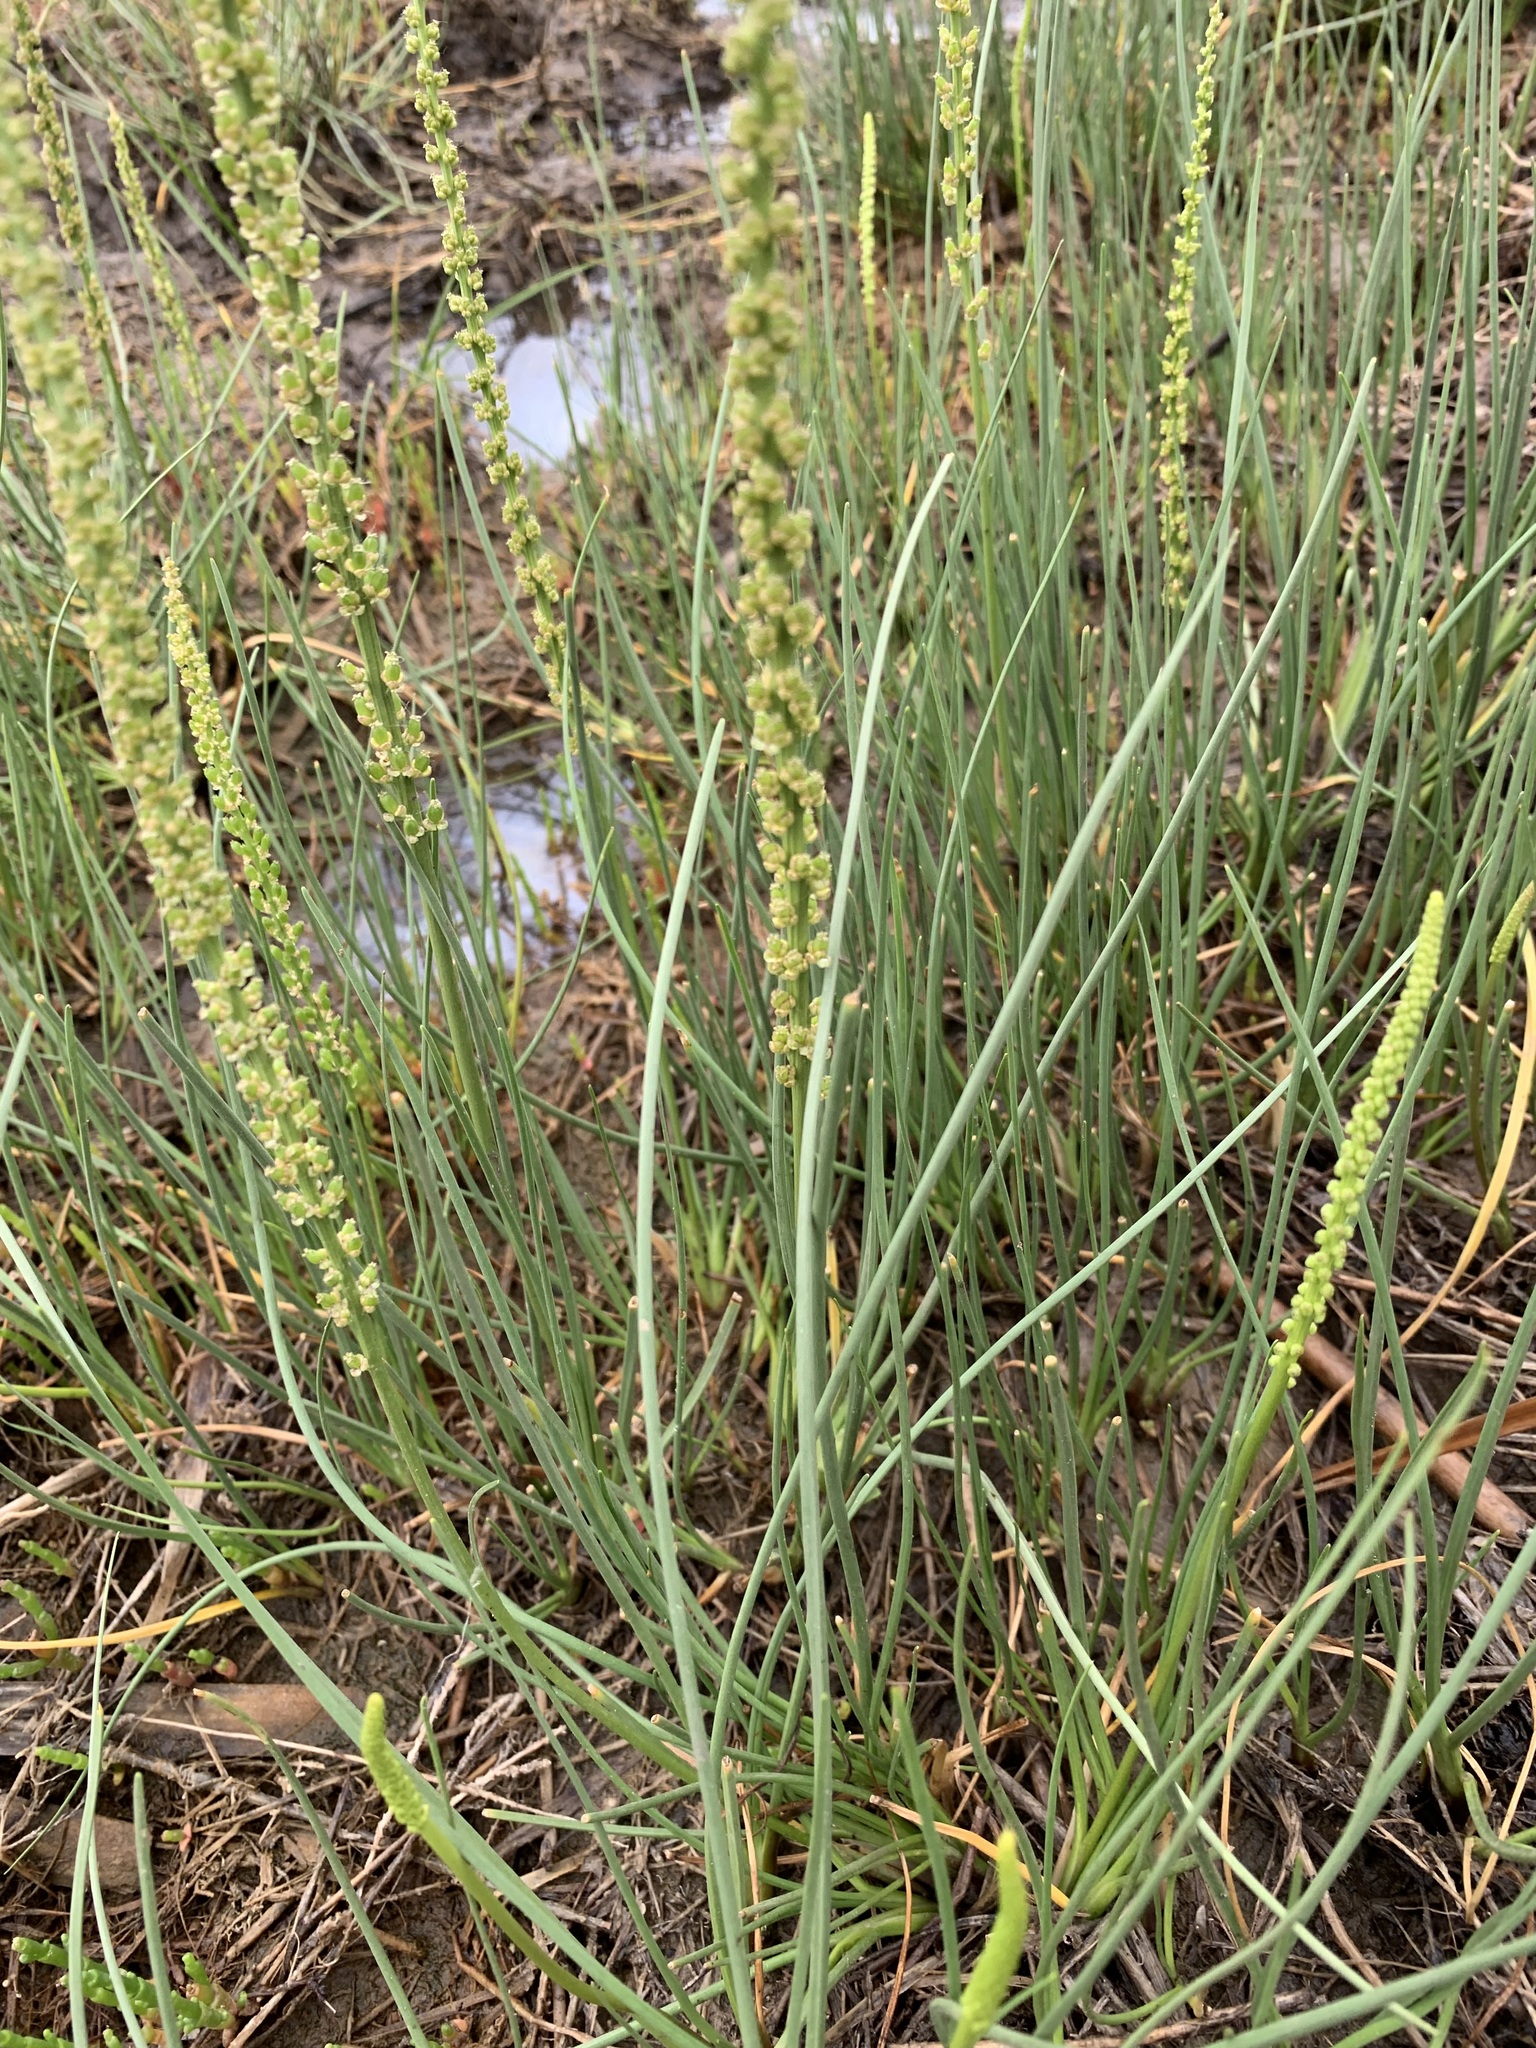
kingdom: Plantae
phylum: Tracheophyta
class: Liliopsida
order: Alismatales
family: Juncaginaceae
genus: Triglochin
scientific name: Triglochin maritima
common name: Sea arrowgrass
